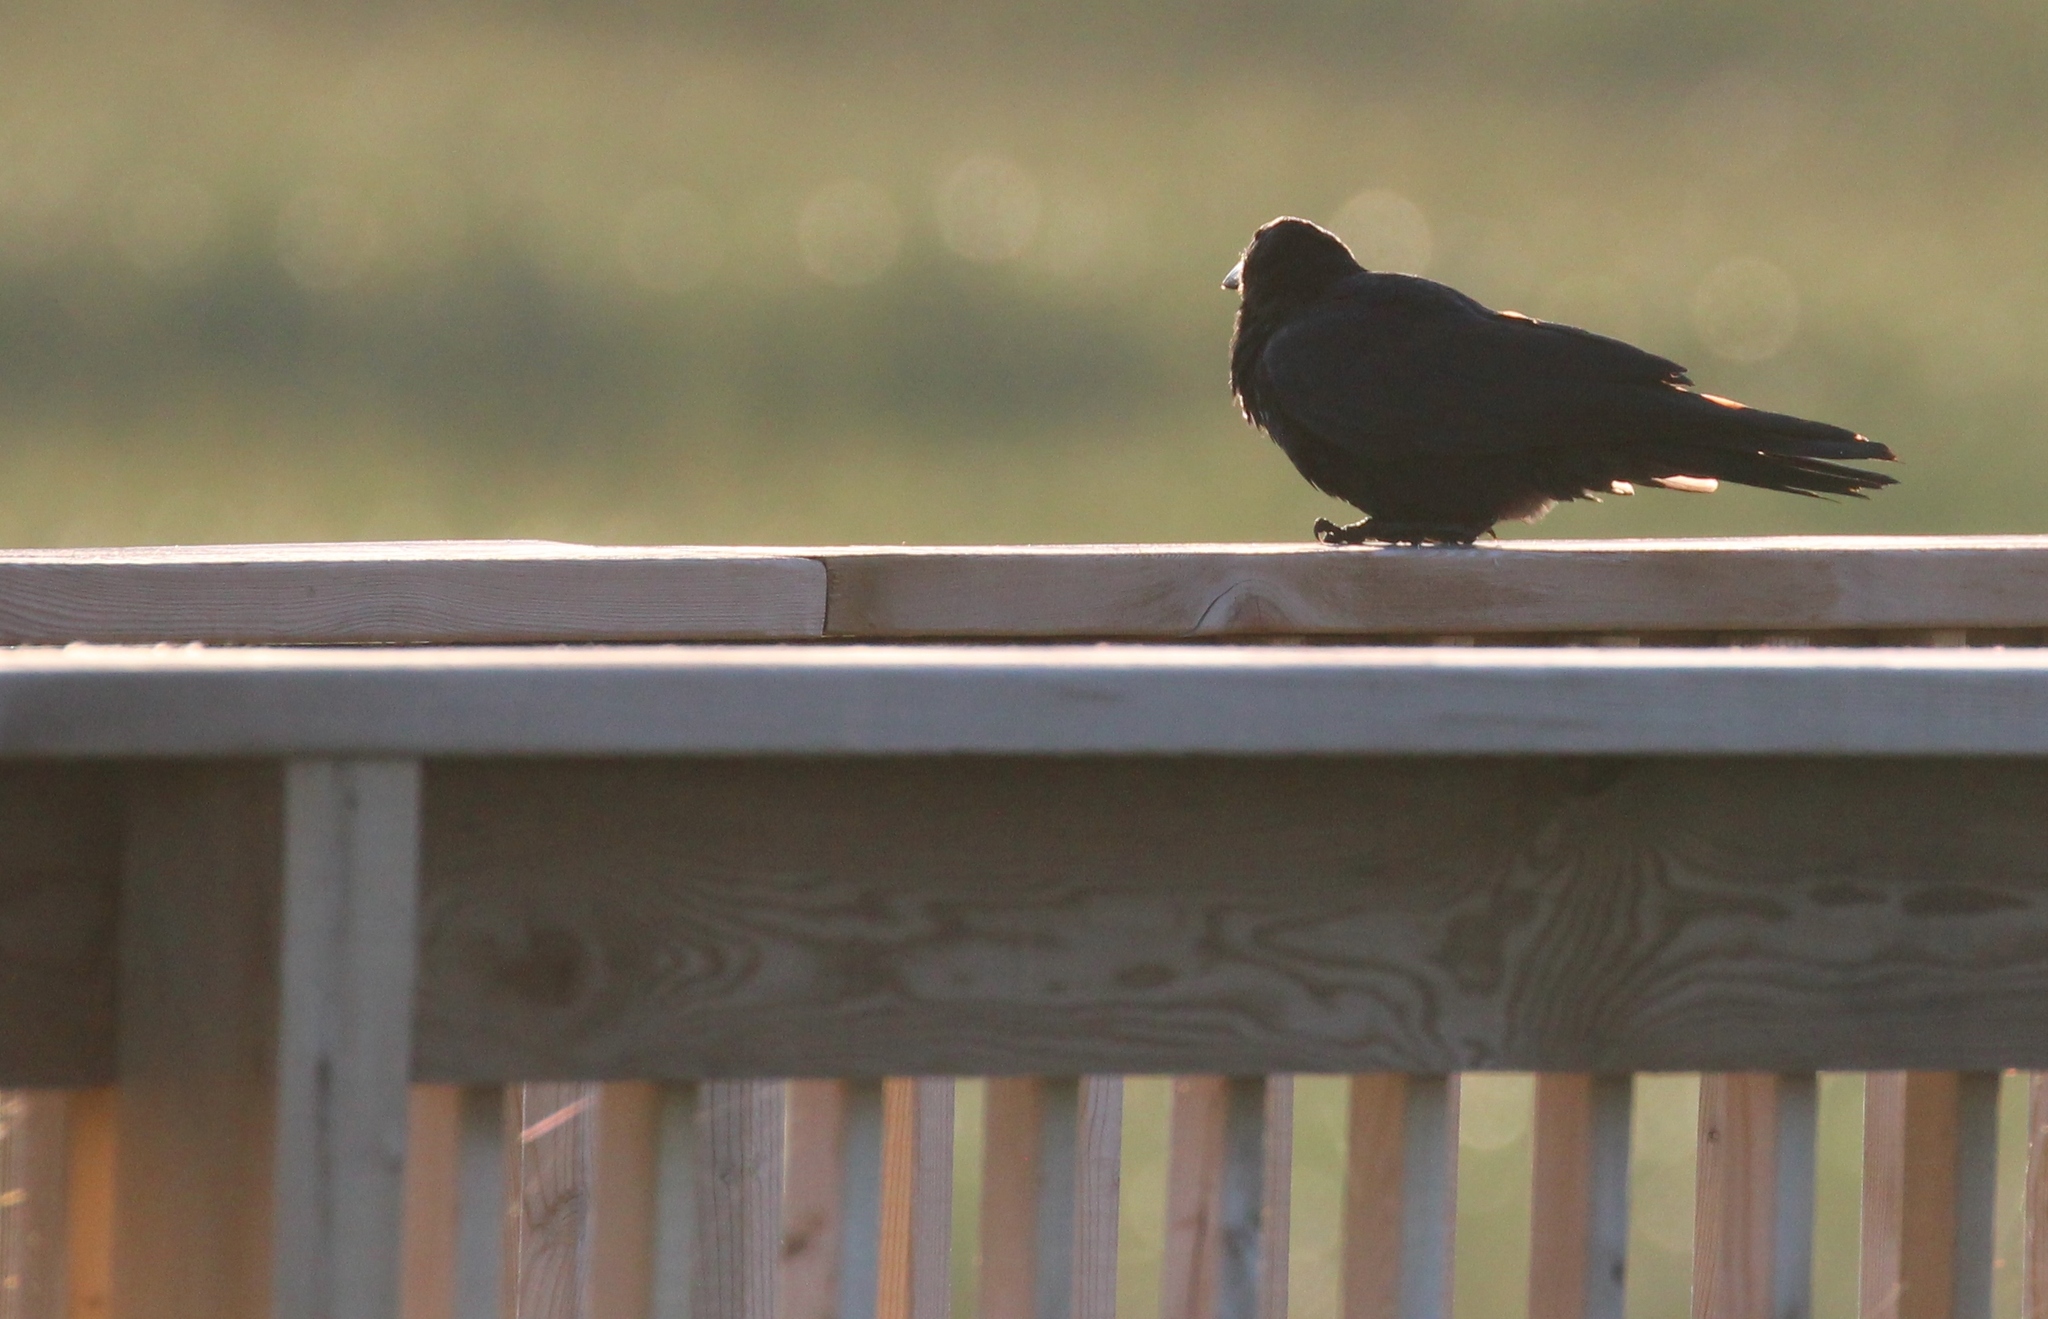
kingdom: Animalia
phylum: Chordata
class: Aves
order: Passeriformes
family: Corvidae
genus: Corvus
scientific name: Corvus brachyrhynchos
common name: American crow
